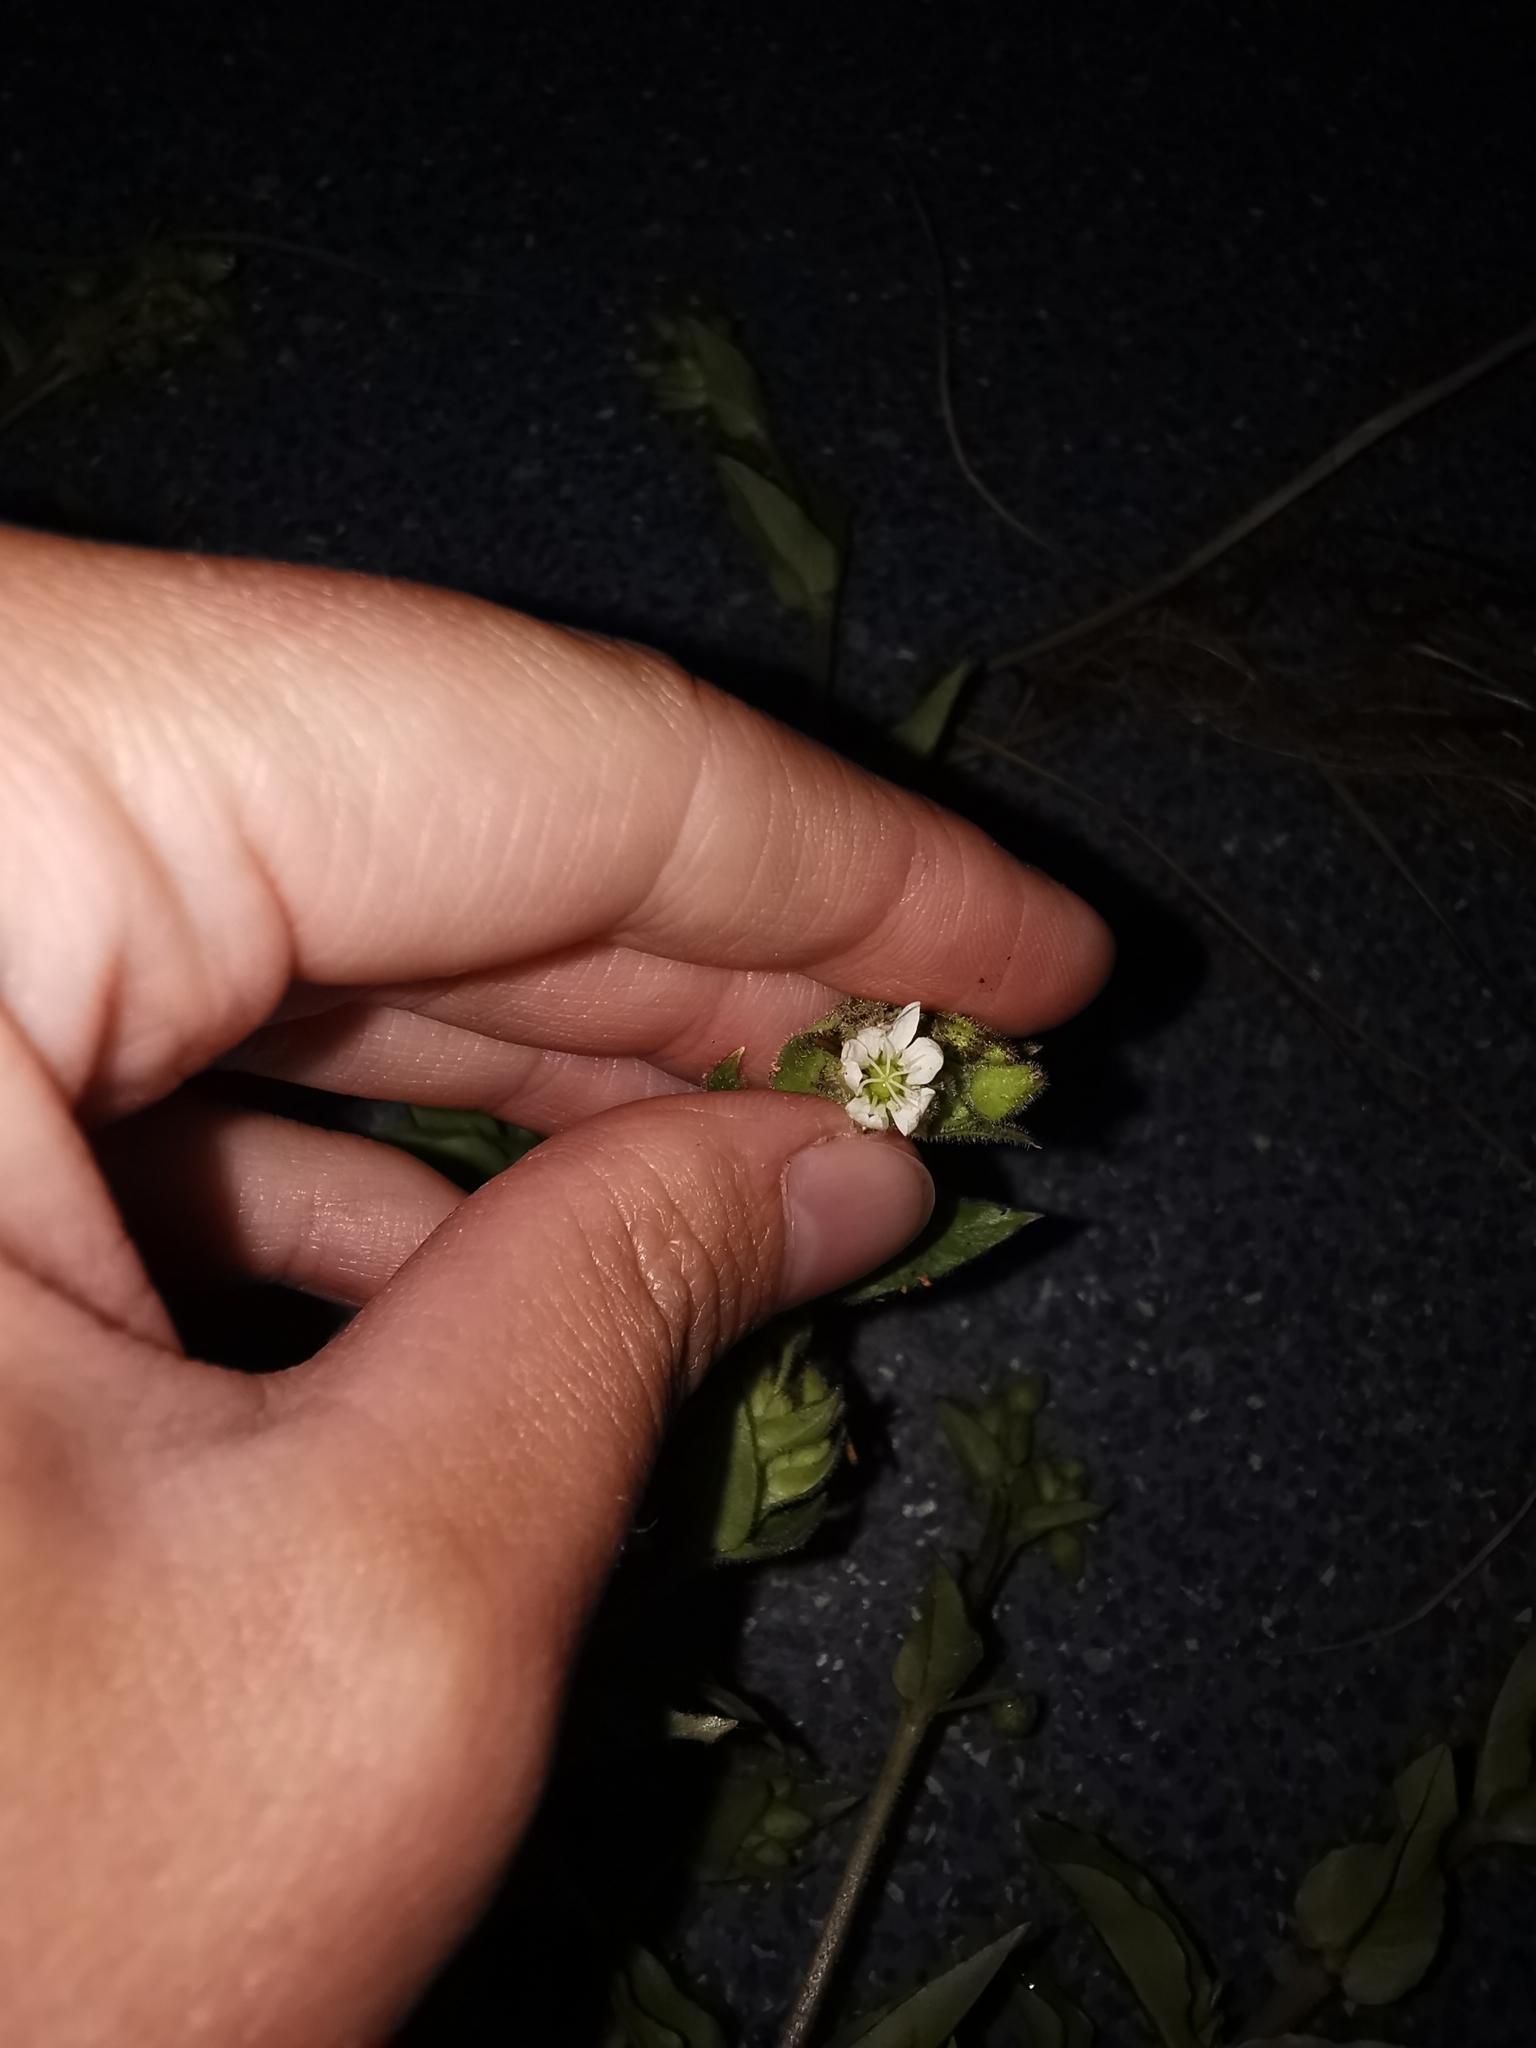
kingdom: Plantae
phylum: Tracheophyta
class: Magnoliopsida
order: Caryophyllales
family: Caryophyllaceae
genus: Stellaria
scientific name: Stellaria aquatica
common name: Water chickweed
